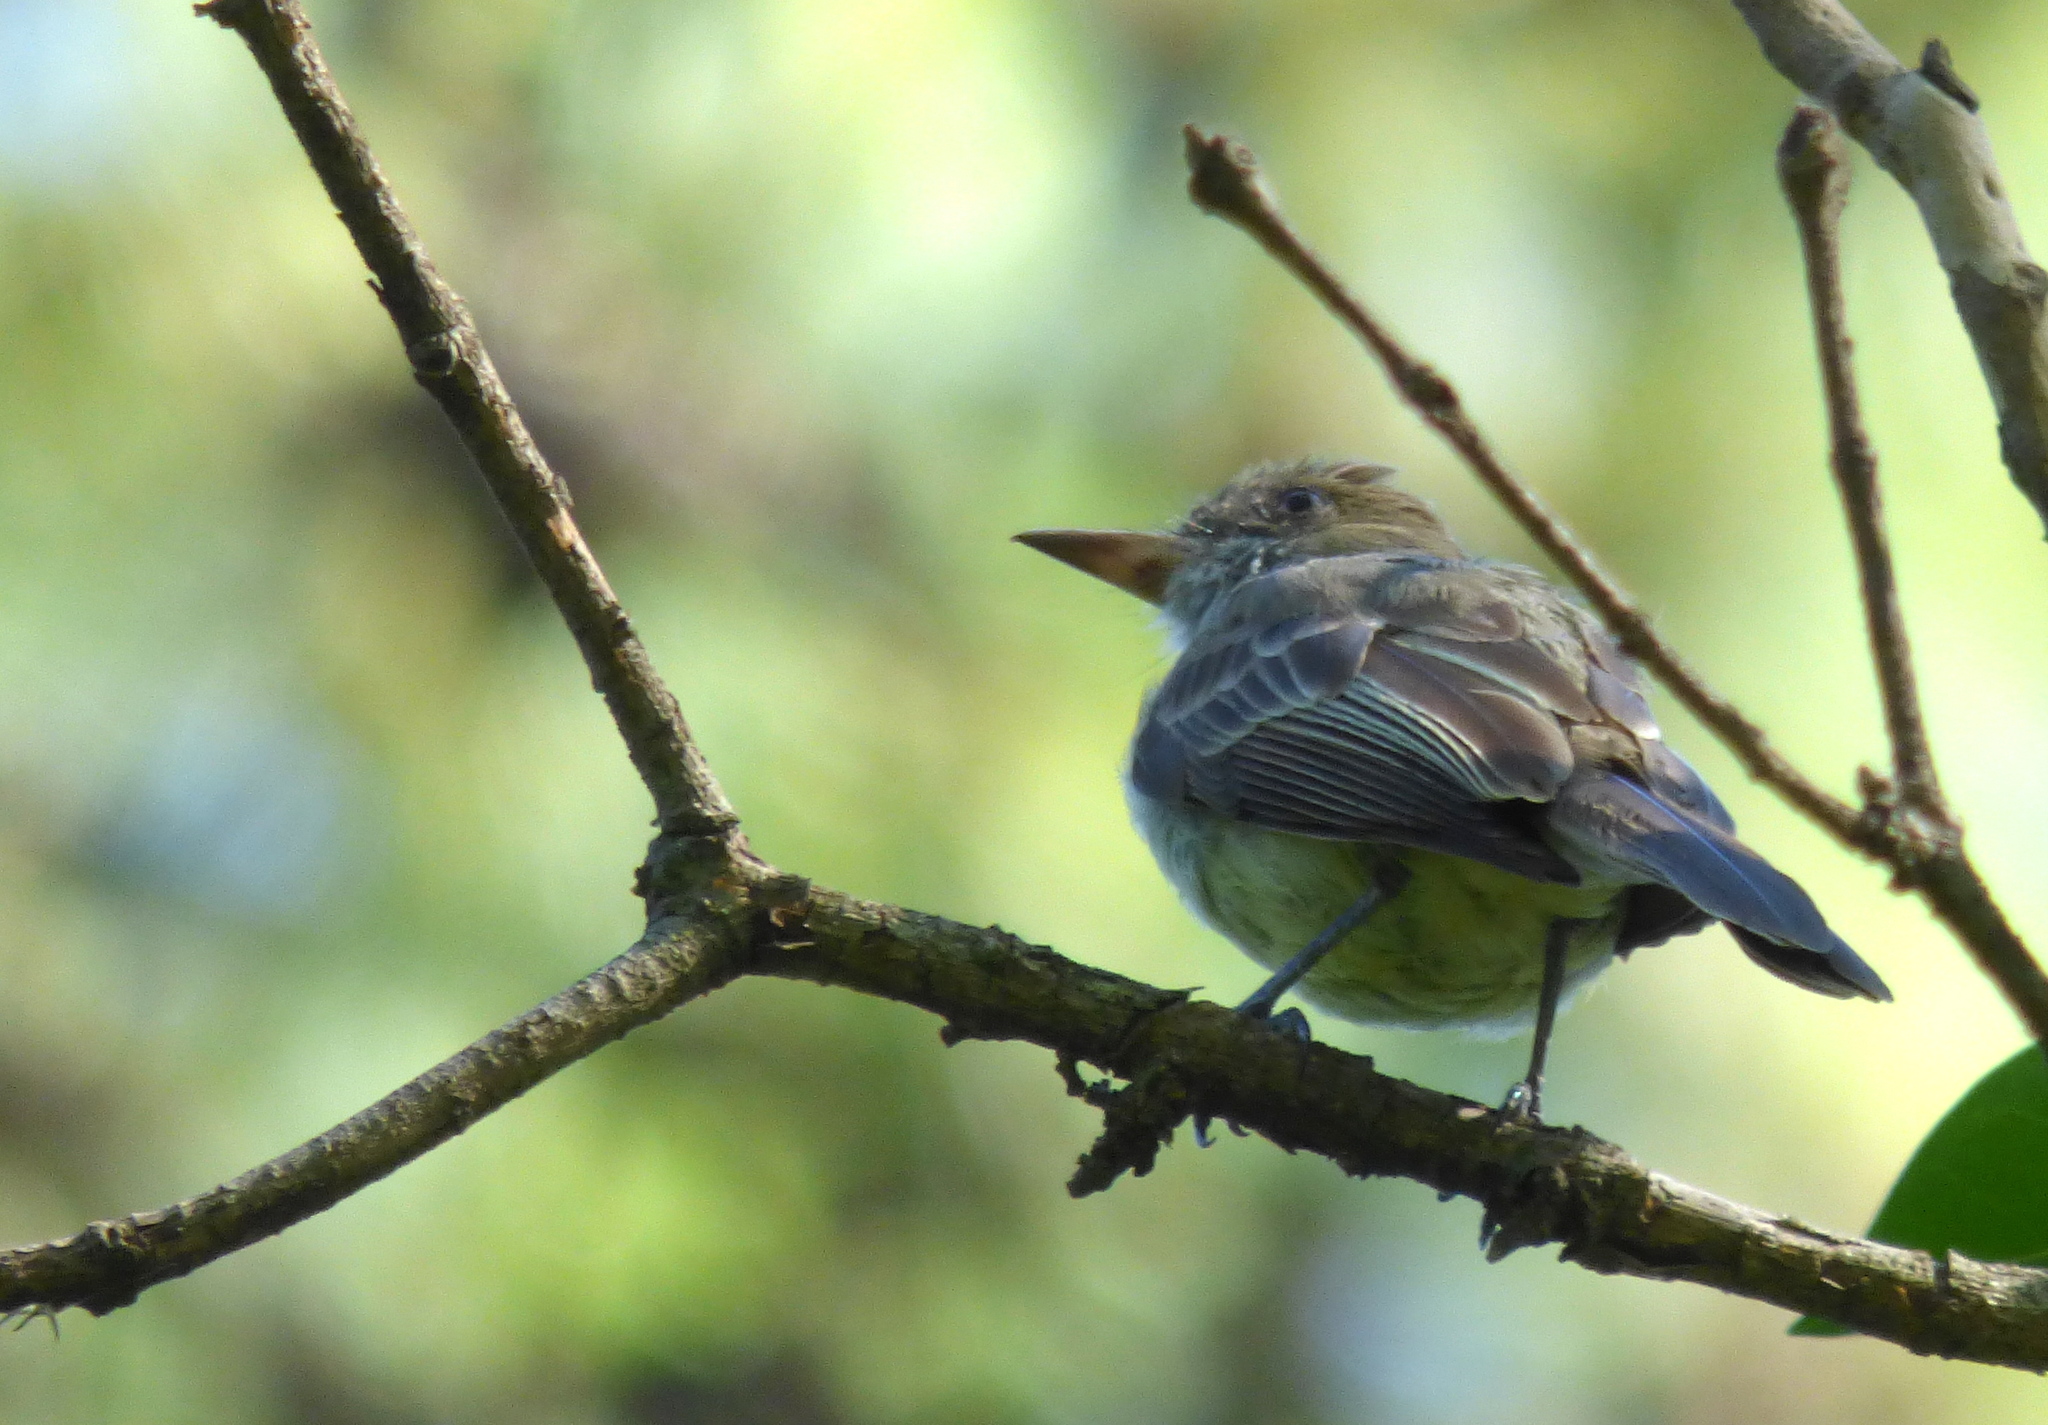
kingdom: Animalia
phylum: Chordata
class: Aves
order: Passeriformes
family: Tyrannidae
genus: Myiarchus
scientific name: Myiarchus swainsoni
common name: Swainson's flycatcher
